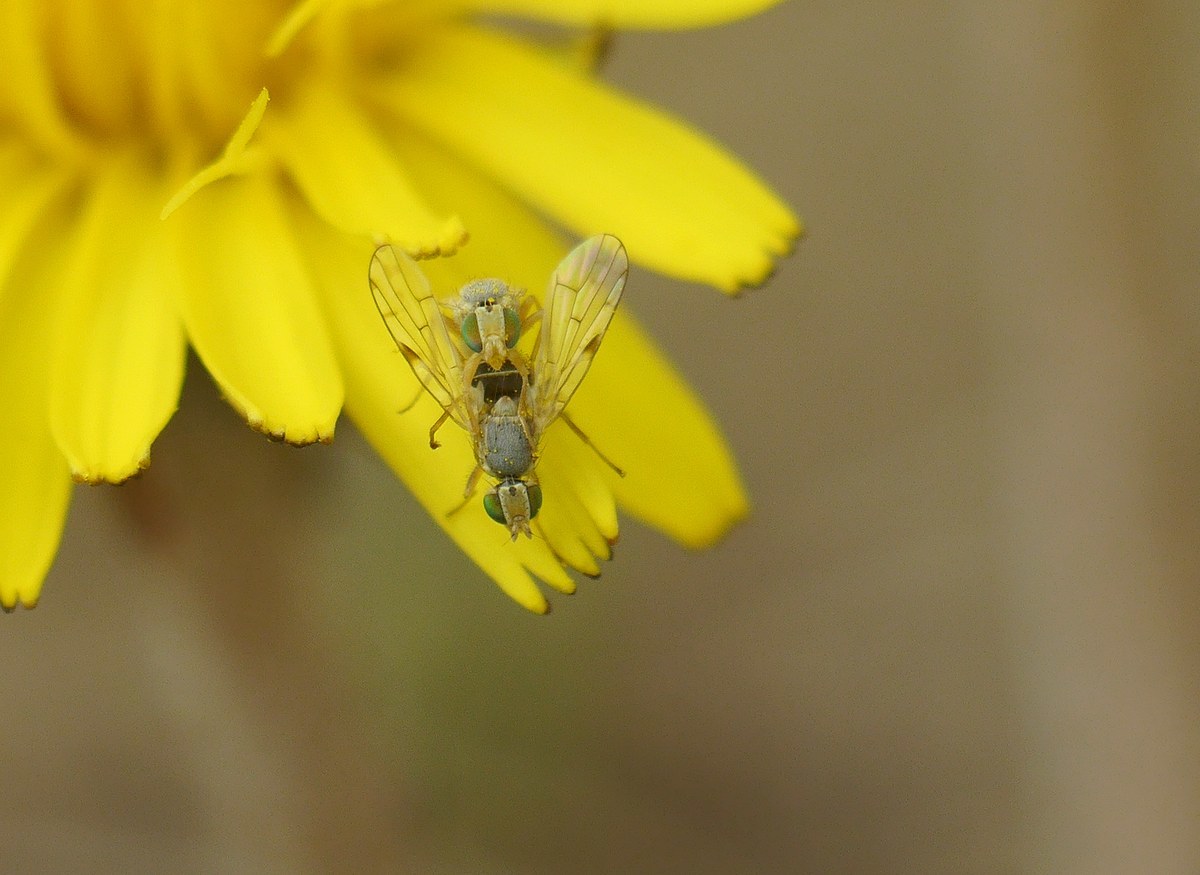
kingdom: Animalia
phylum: Arthropoda
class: Insecta
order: Diptera
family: Tephritidae
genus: Ensina
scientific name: Ensina sonchi
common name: Sonchus fly
